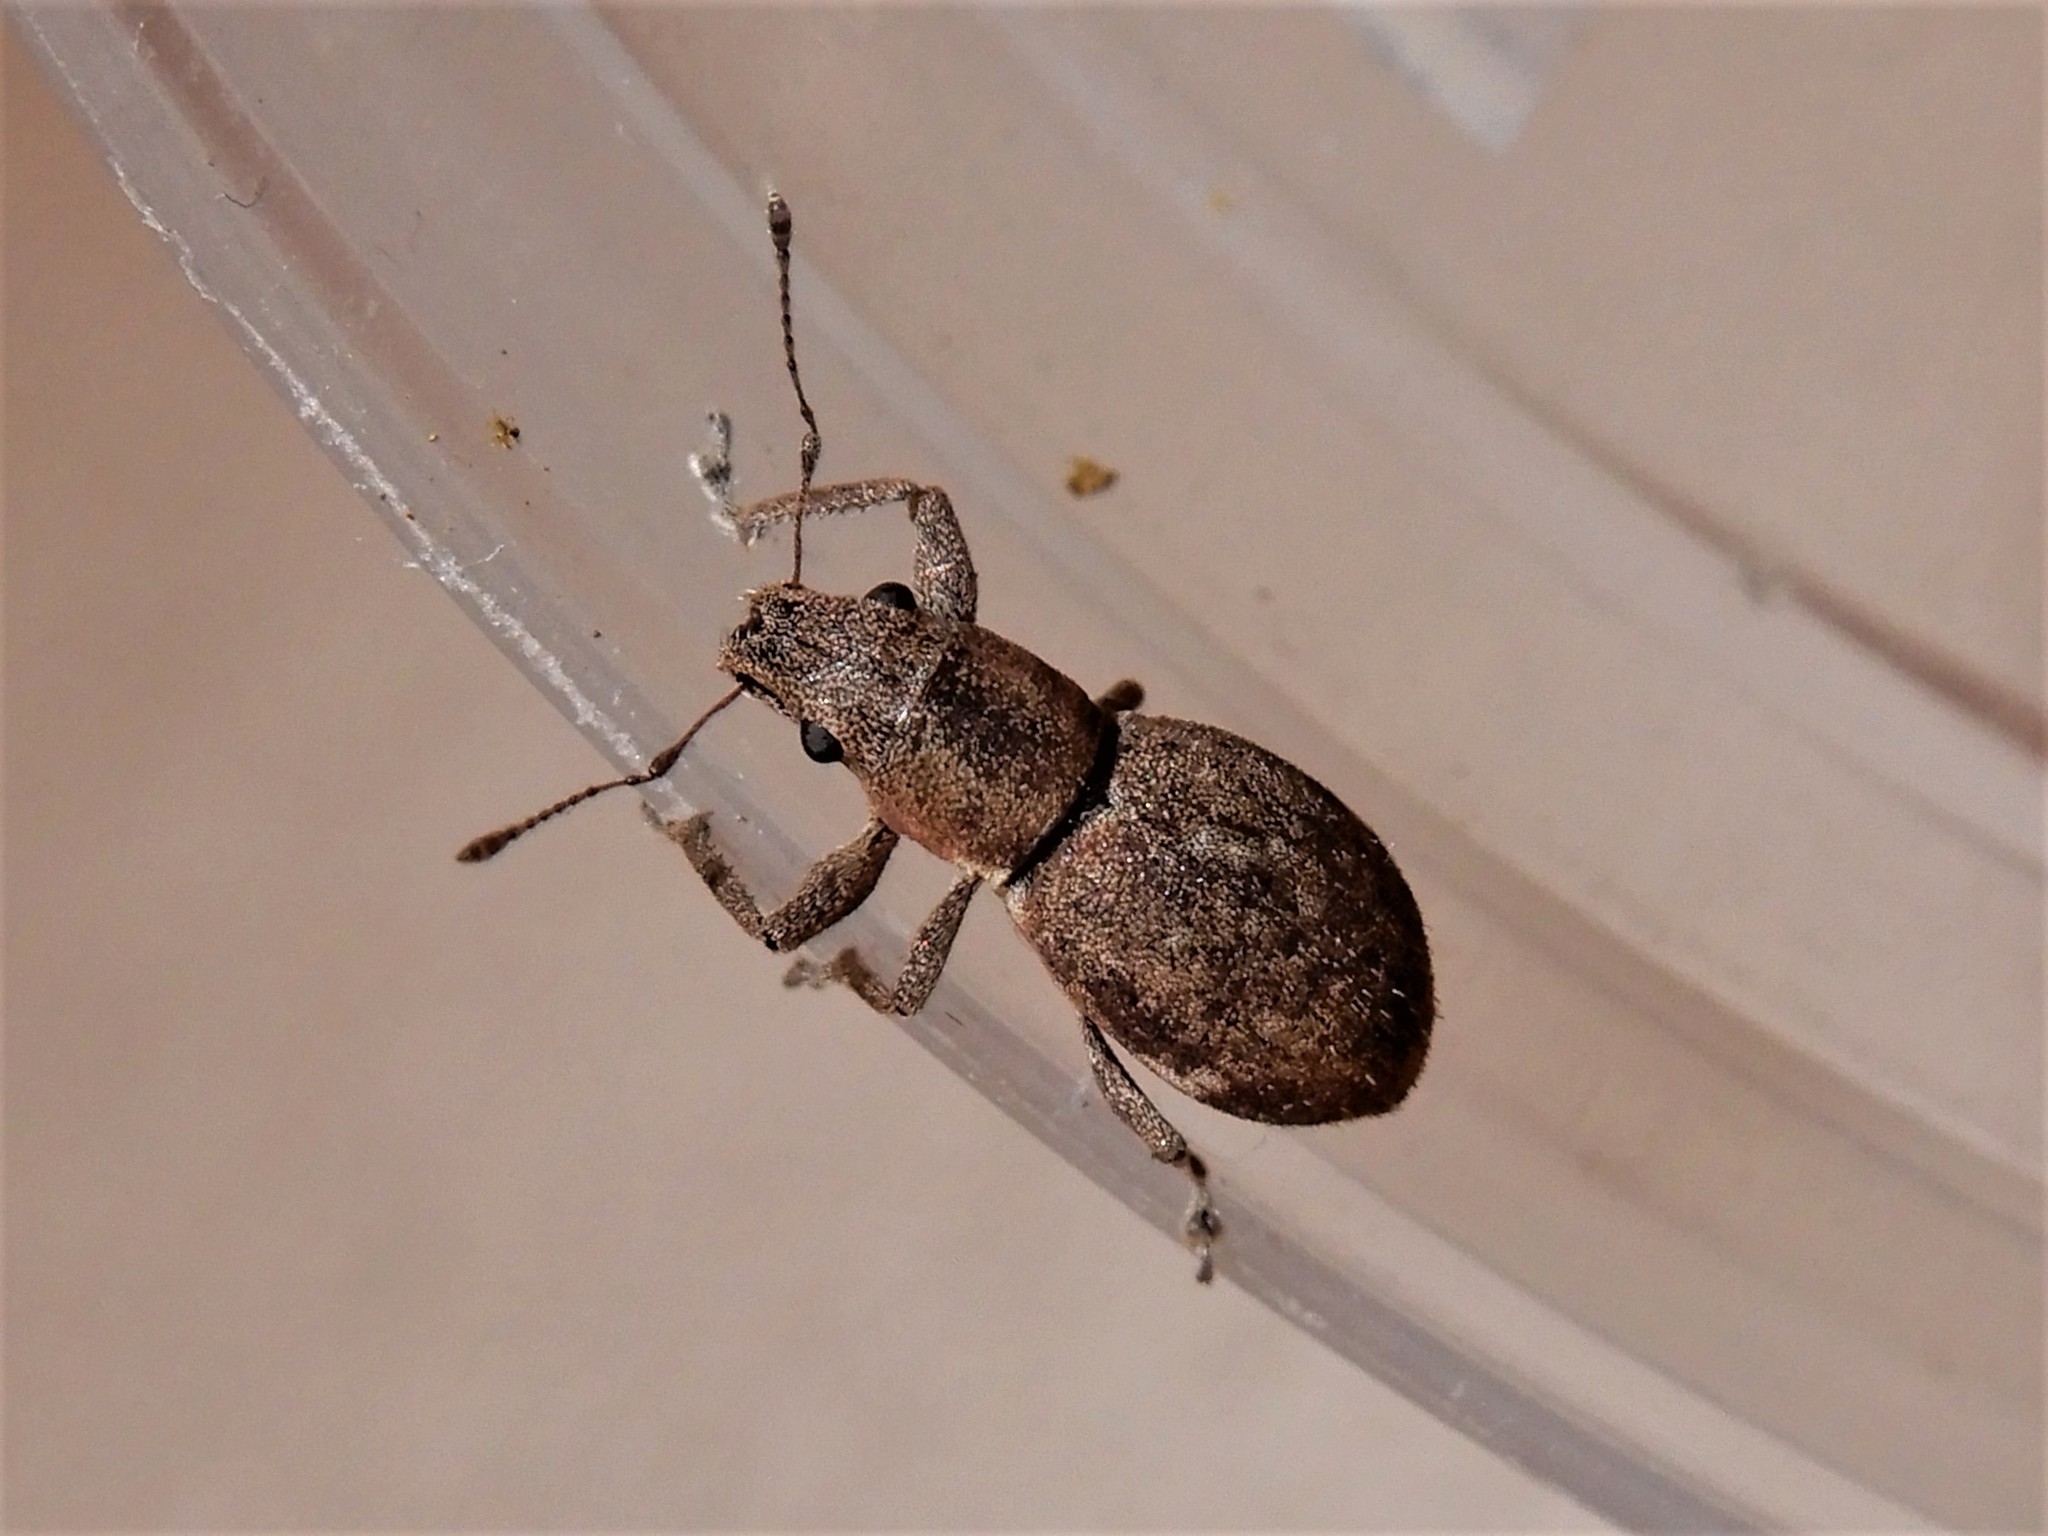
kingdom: Animalia
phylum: Arthropoda
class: Insecta
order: Coleoptera
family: Curculionidae
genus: Naupactus
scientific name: Naupactus cervinus
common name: Fuller rose beetle
